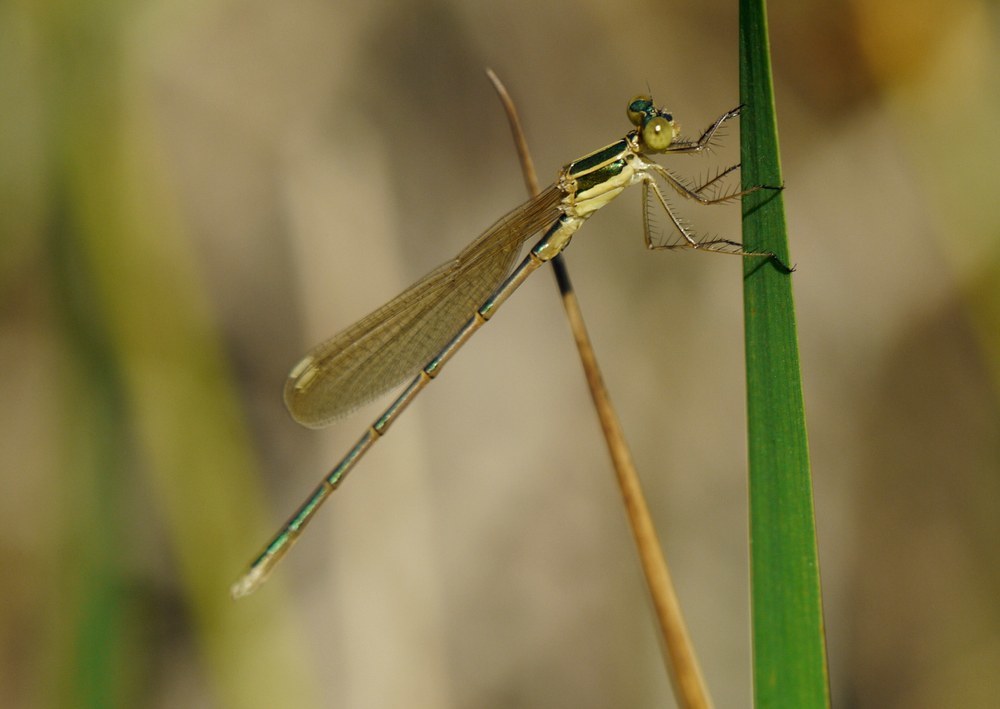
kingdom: Animalia
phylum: Arthropoda
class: Insecta
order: Odonata
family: Lestidae
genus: Lestes
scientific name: Lestes barbarus
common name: Migrant spreadwing
